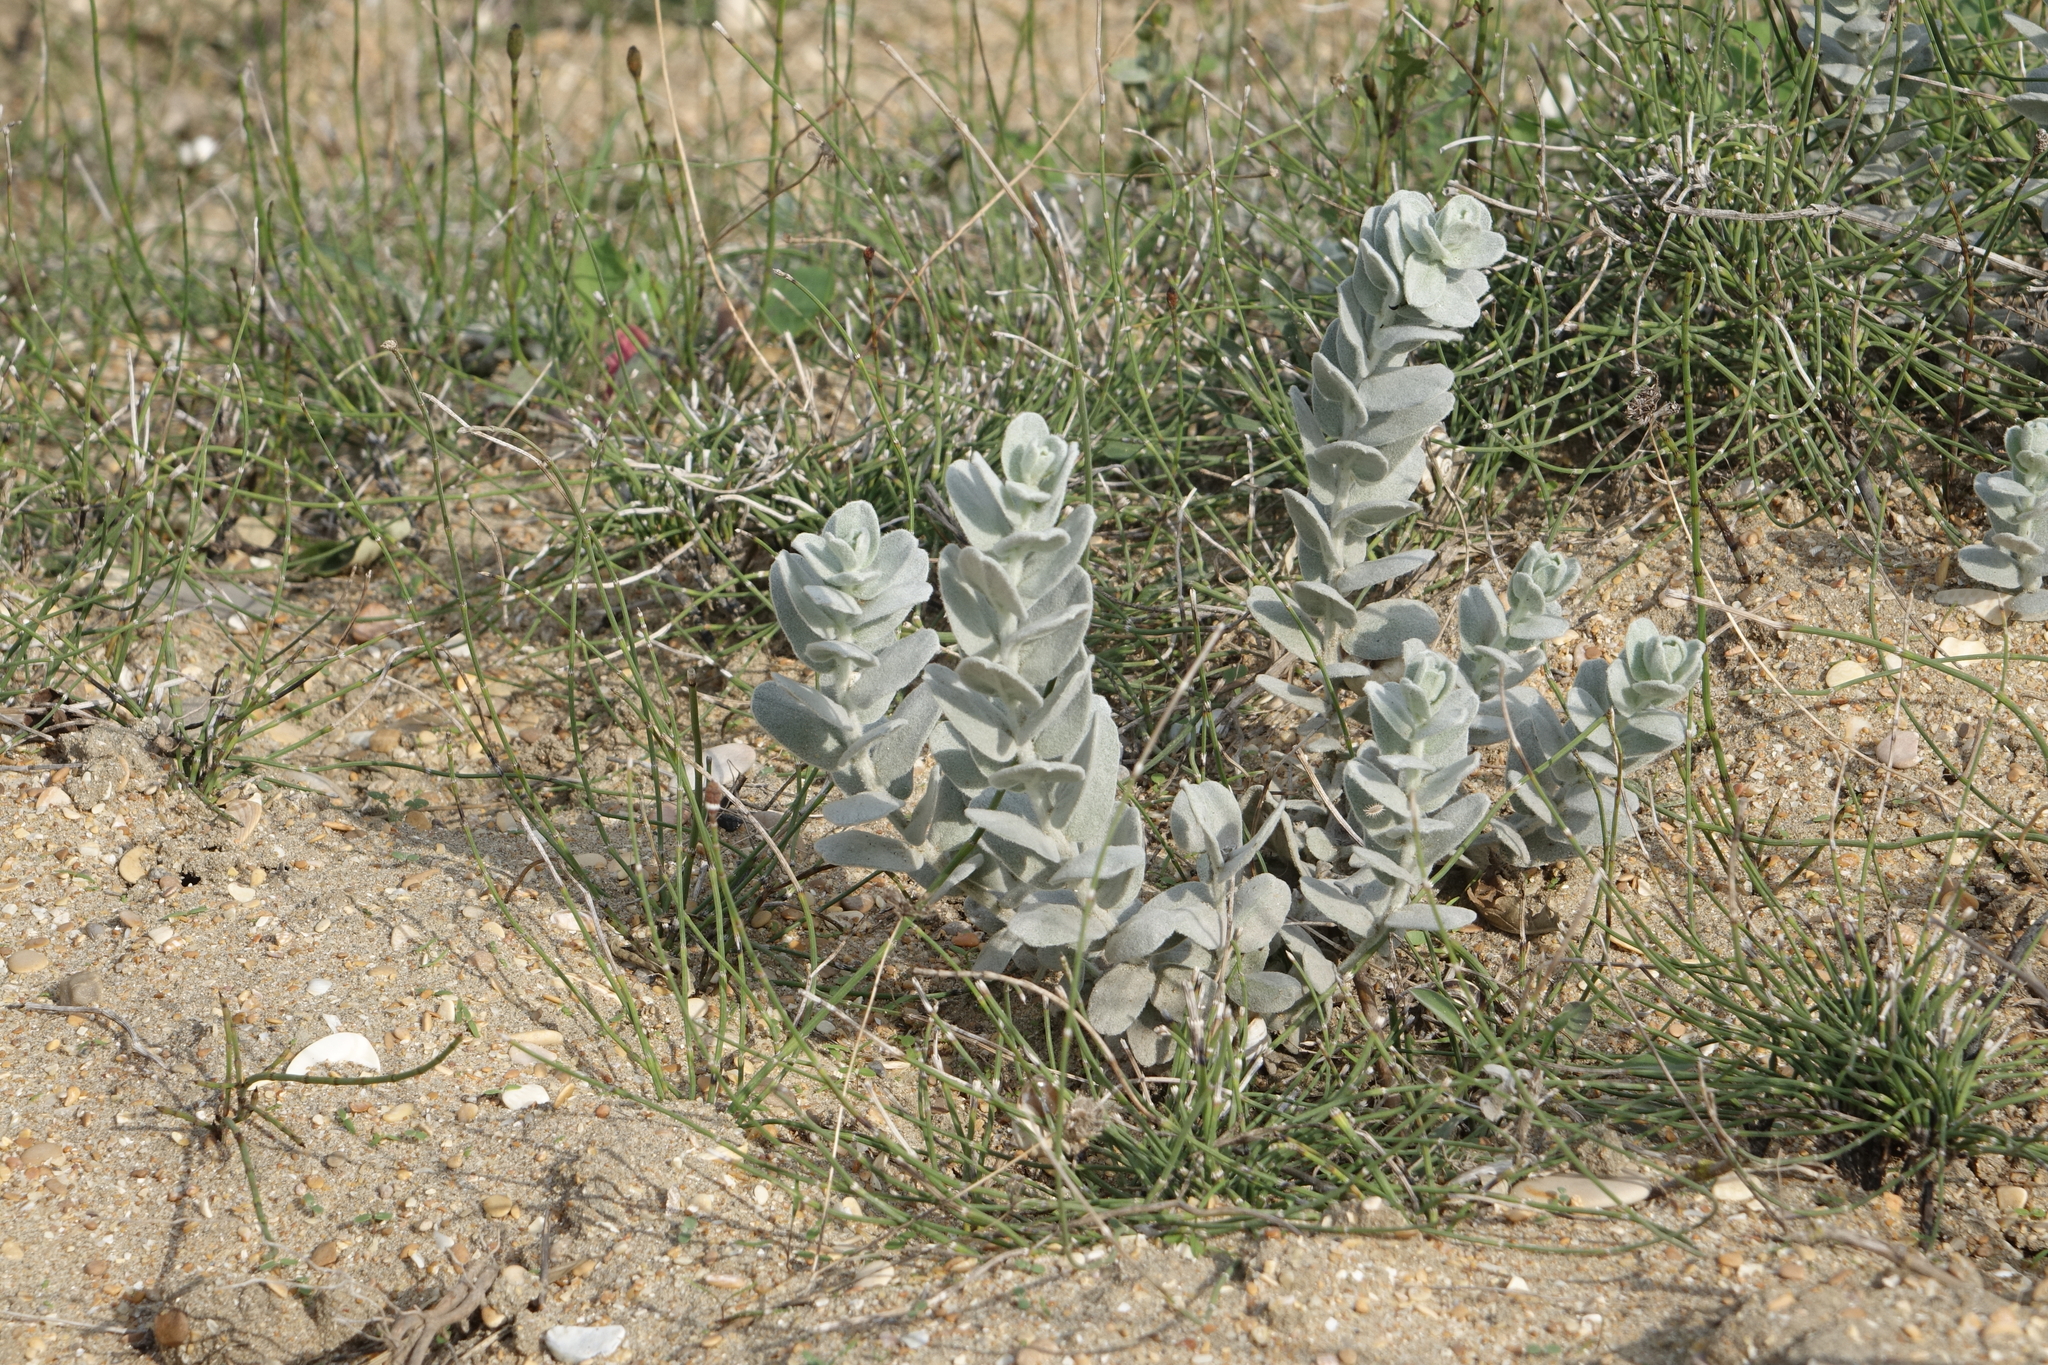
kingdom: Plantae
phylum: Tracheophyta
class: Magnoliopsida
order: Solanales
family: Convolvulaceae
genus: Convolvulus
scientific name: Convolvulus persicus
